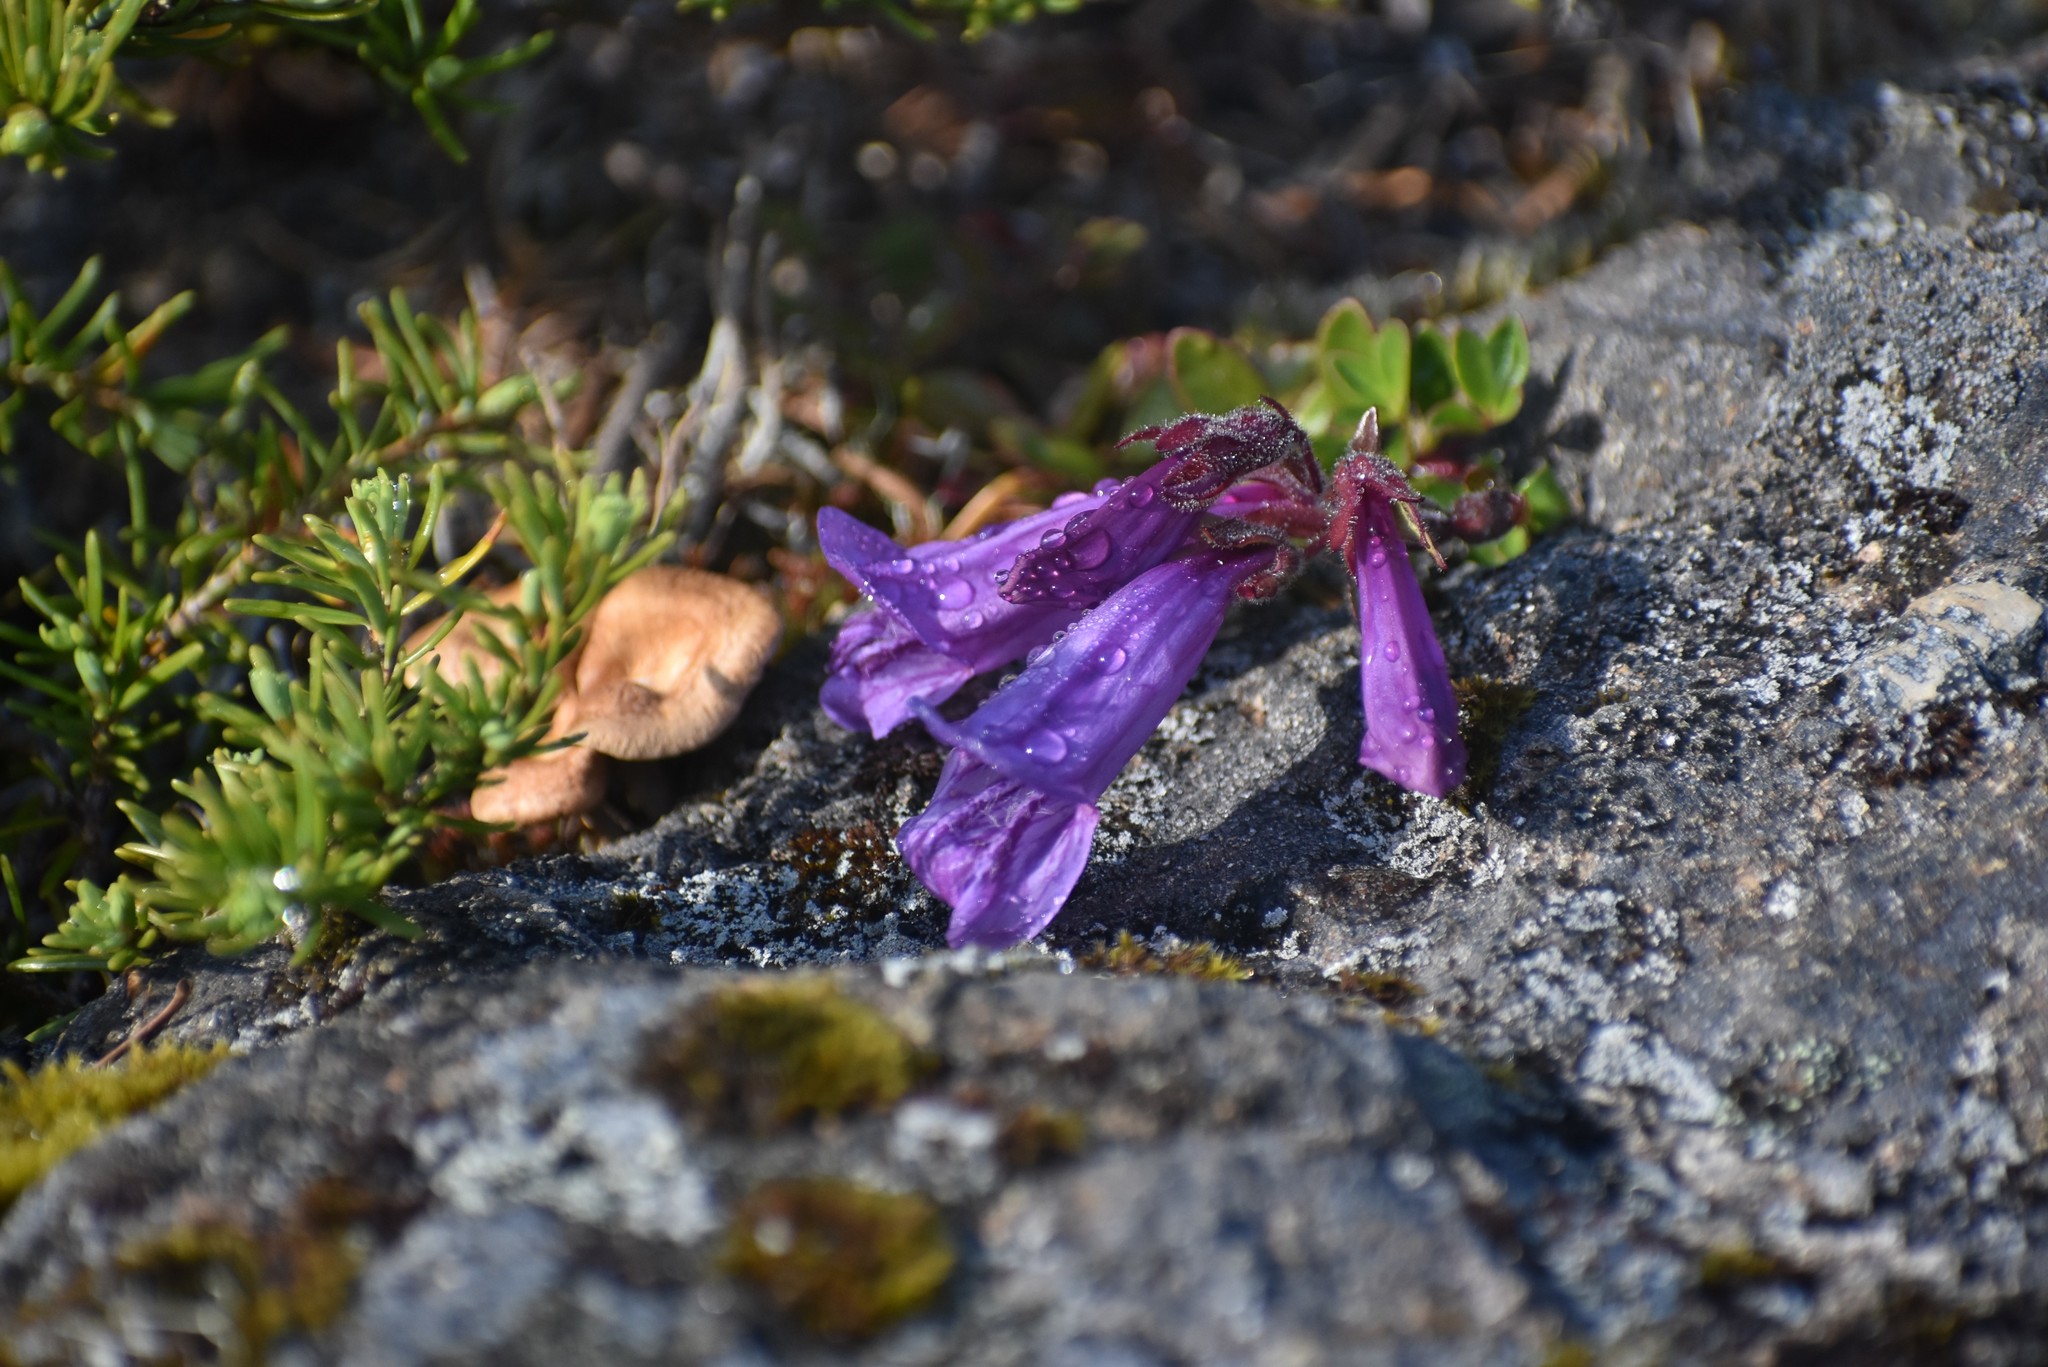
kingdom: Plantae
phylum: Tracheophyta
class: Magnoliopsida
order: Lamiales
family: Plantaginaceae
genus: Penstemon
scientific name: Penstemon davidsonii
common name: Davidson's penstemon
